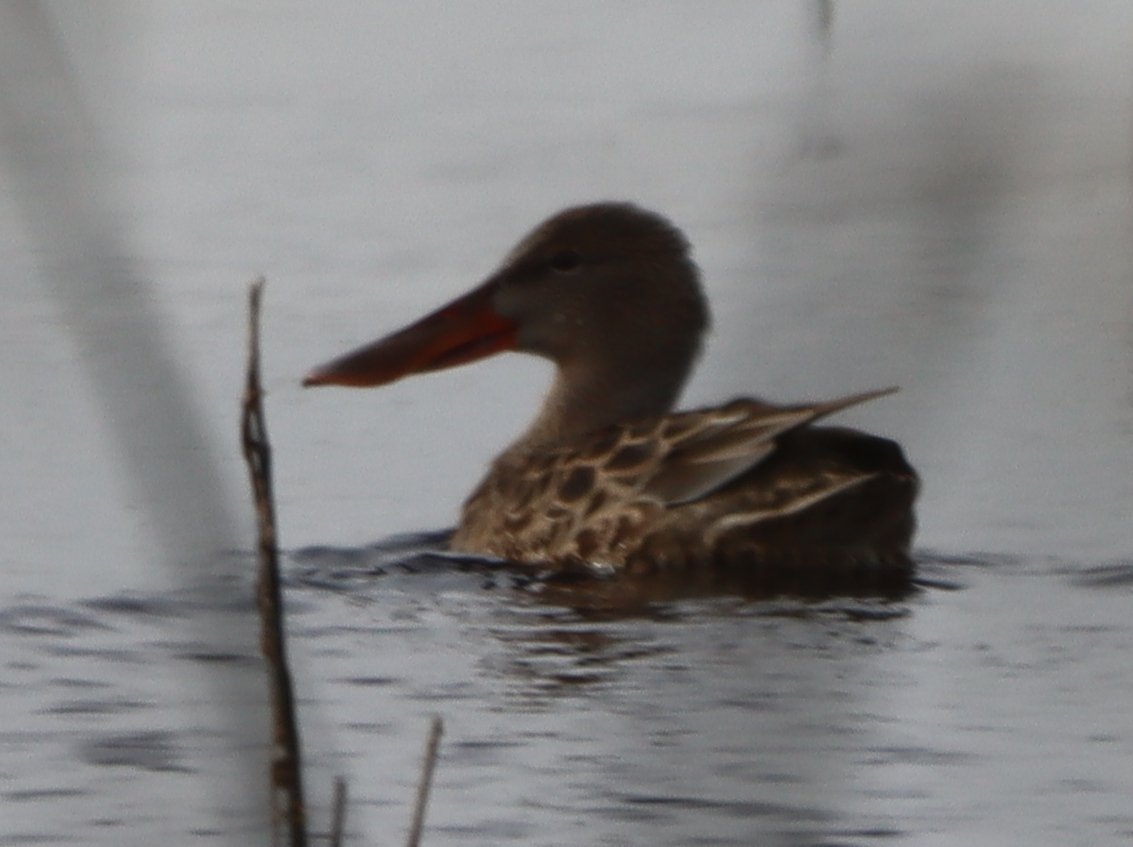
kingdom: Animalia
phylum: Chordata
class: Aves
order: Anseriformes
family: Anatidae
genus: Spatula
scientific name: Spatula clypeata
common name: Northern shoveler
